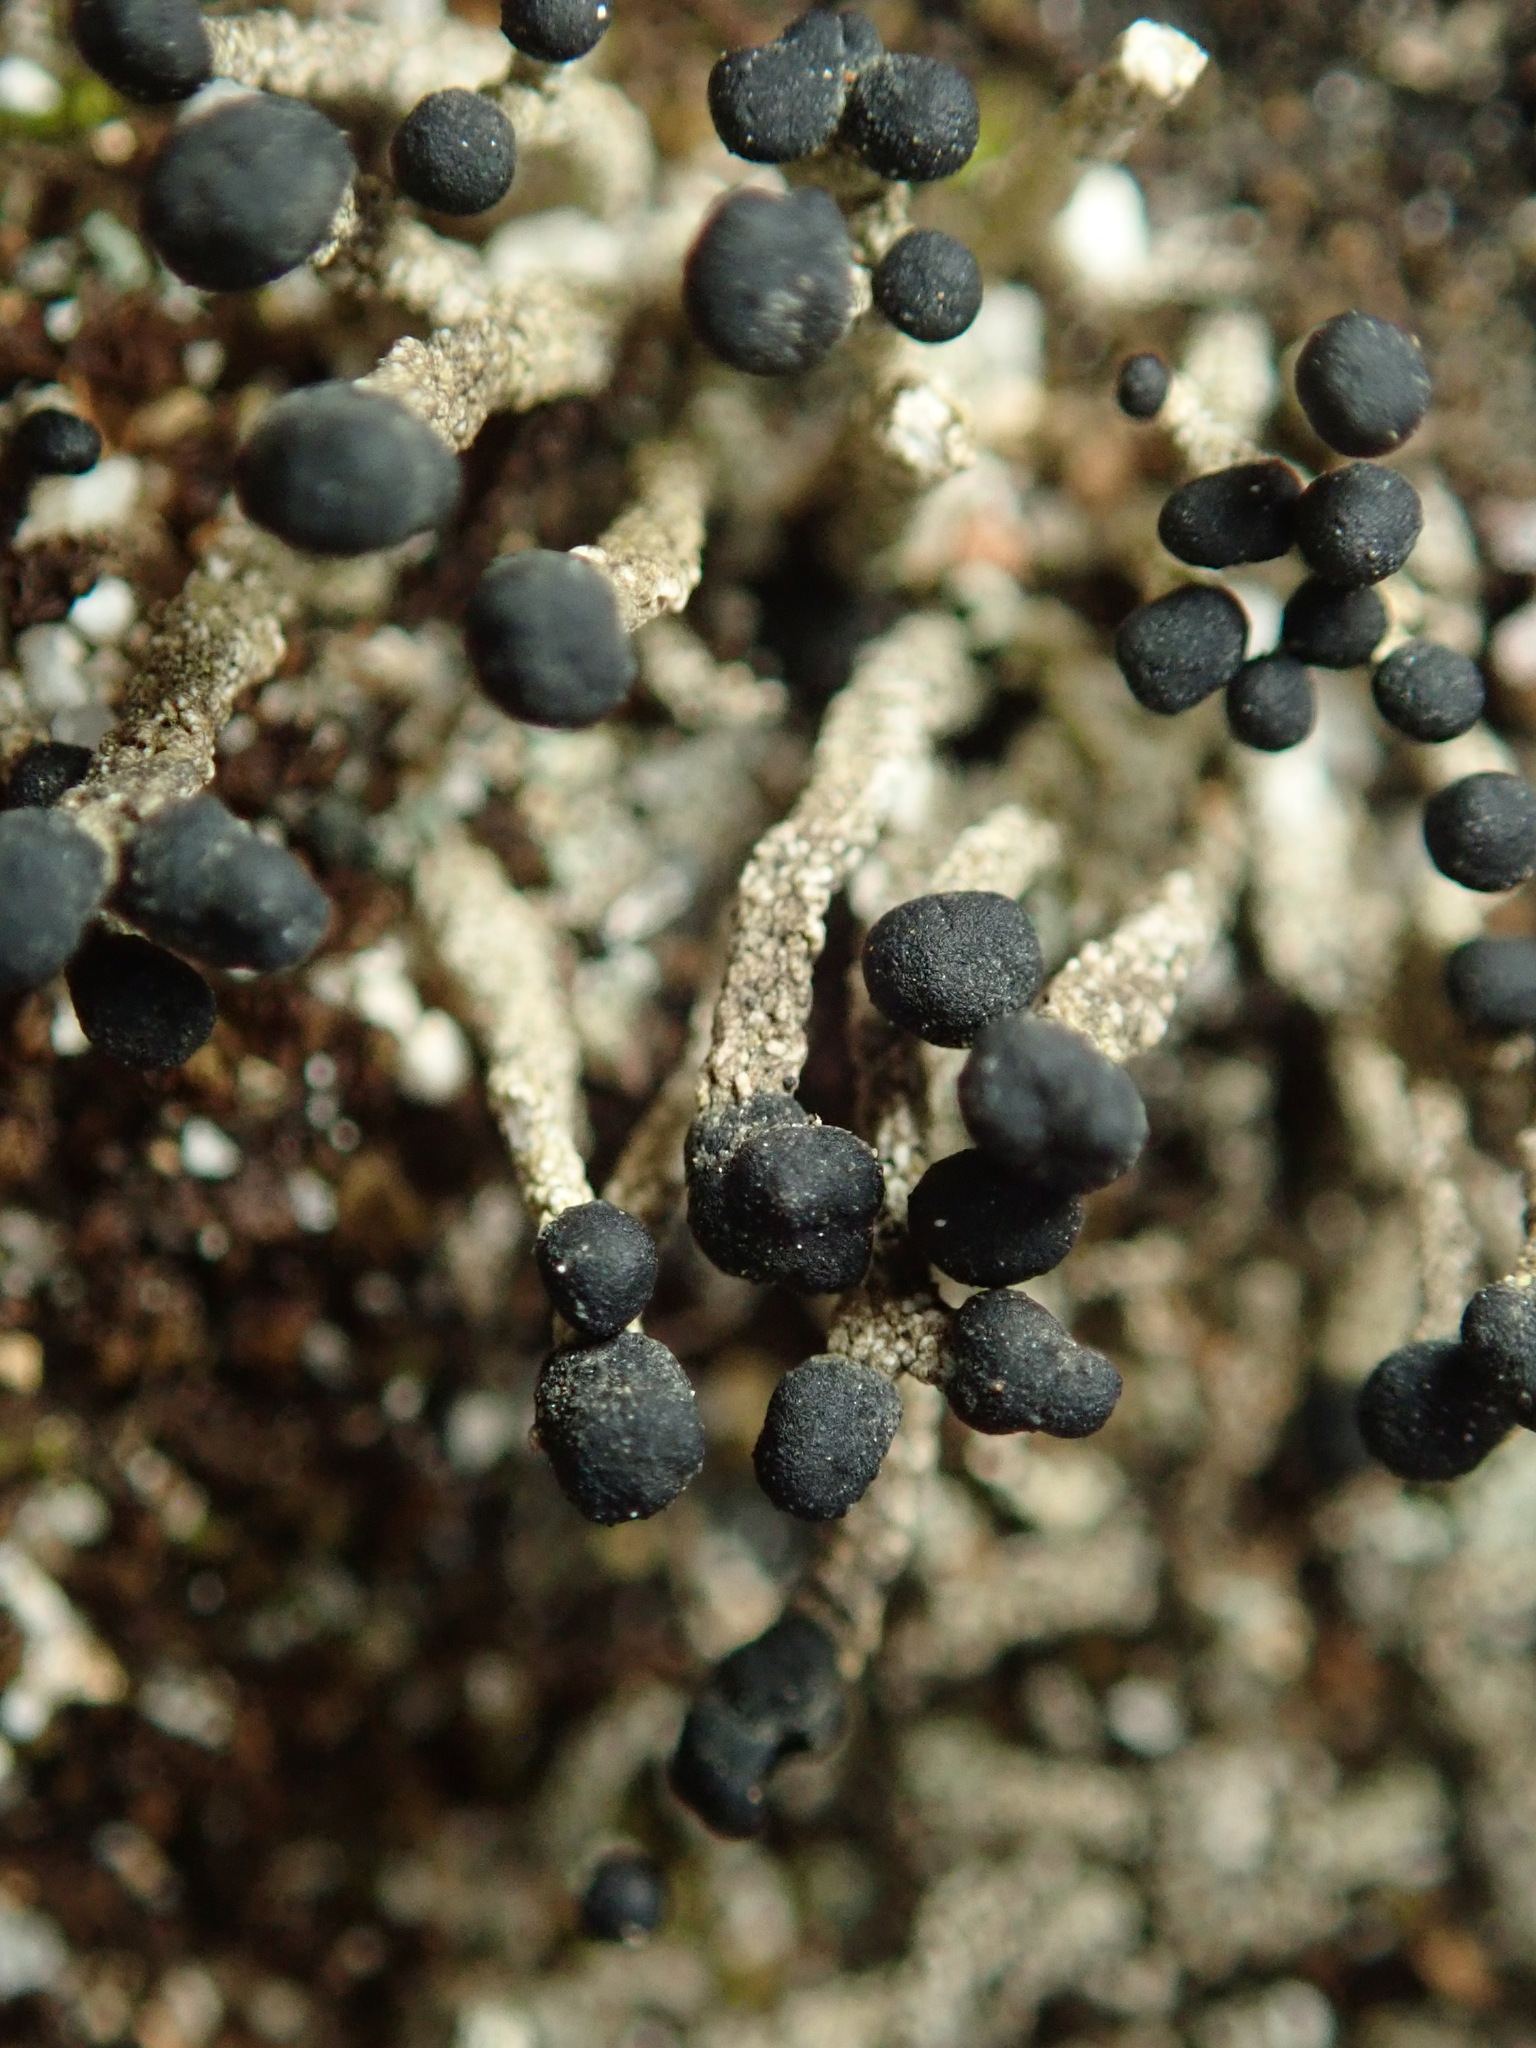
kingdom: Fungi
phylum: Ascomycota
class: Lecanoromycetes
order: Lecanorales
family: Cladoniaceae
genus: Pilophorus
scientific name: Pilophorus acicularis
